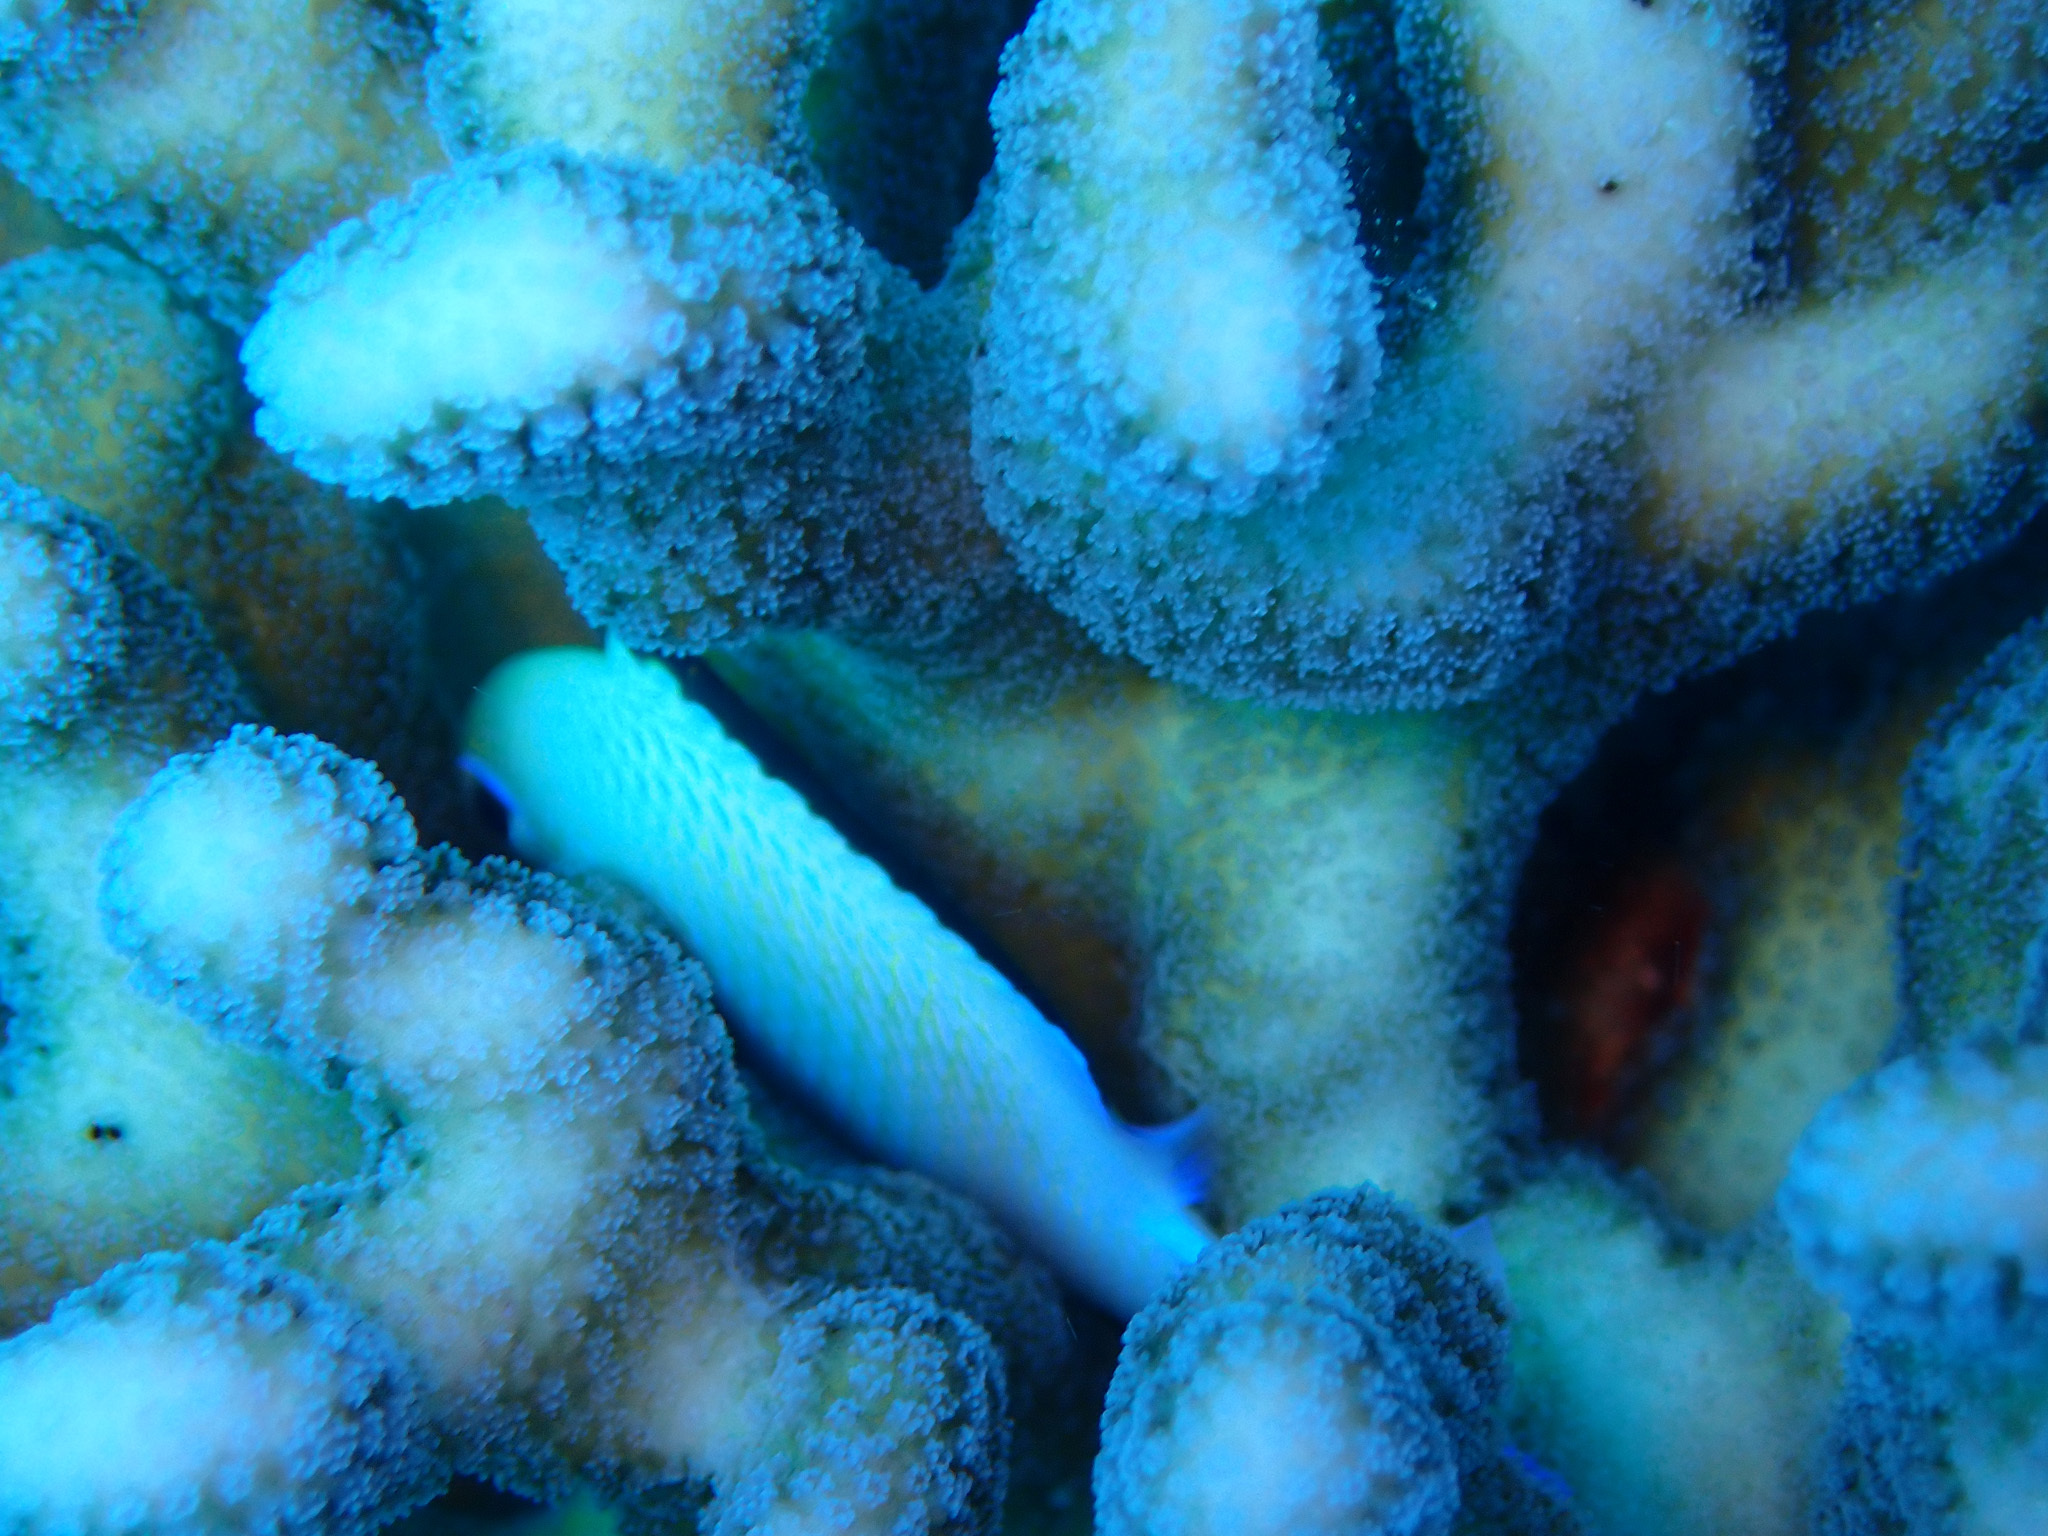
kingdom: Animalia
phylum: Chordata
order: Perciformes
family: Pomacentridae
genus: Dascyllus
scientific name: Dascyllus marginatus
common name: Red sea dascyllus
